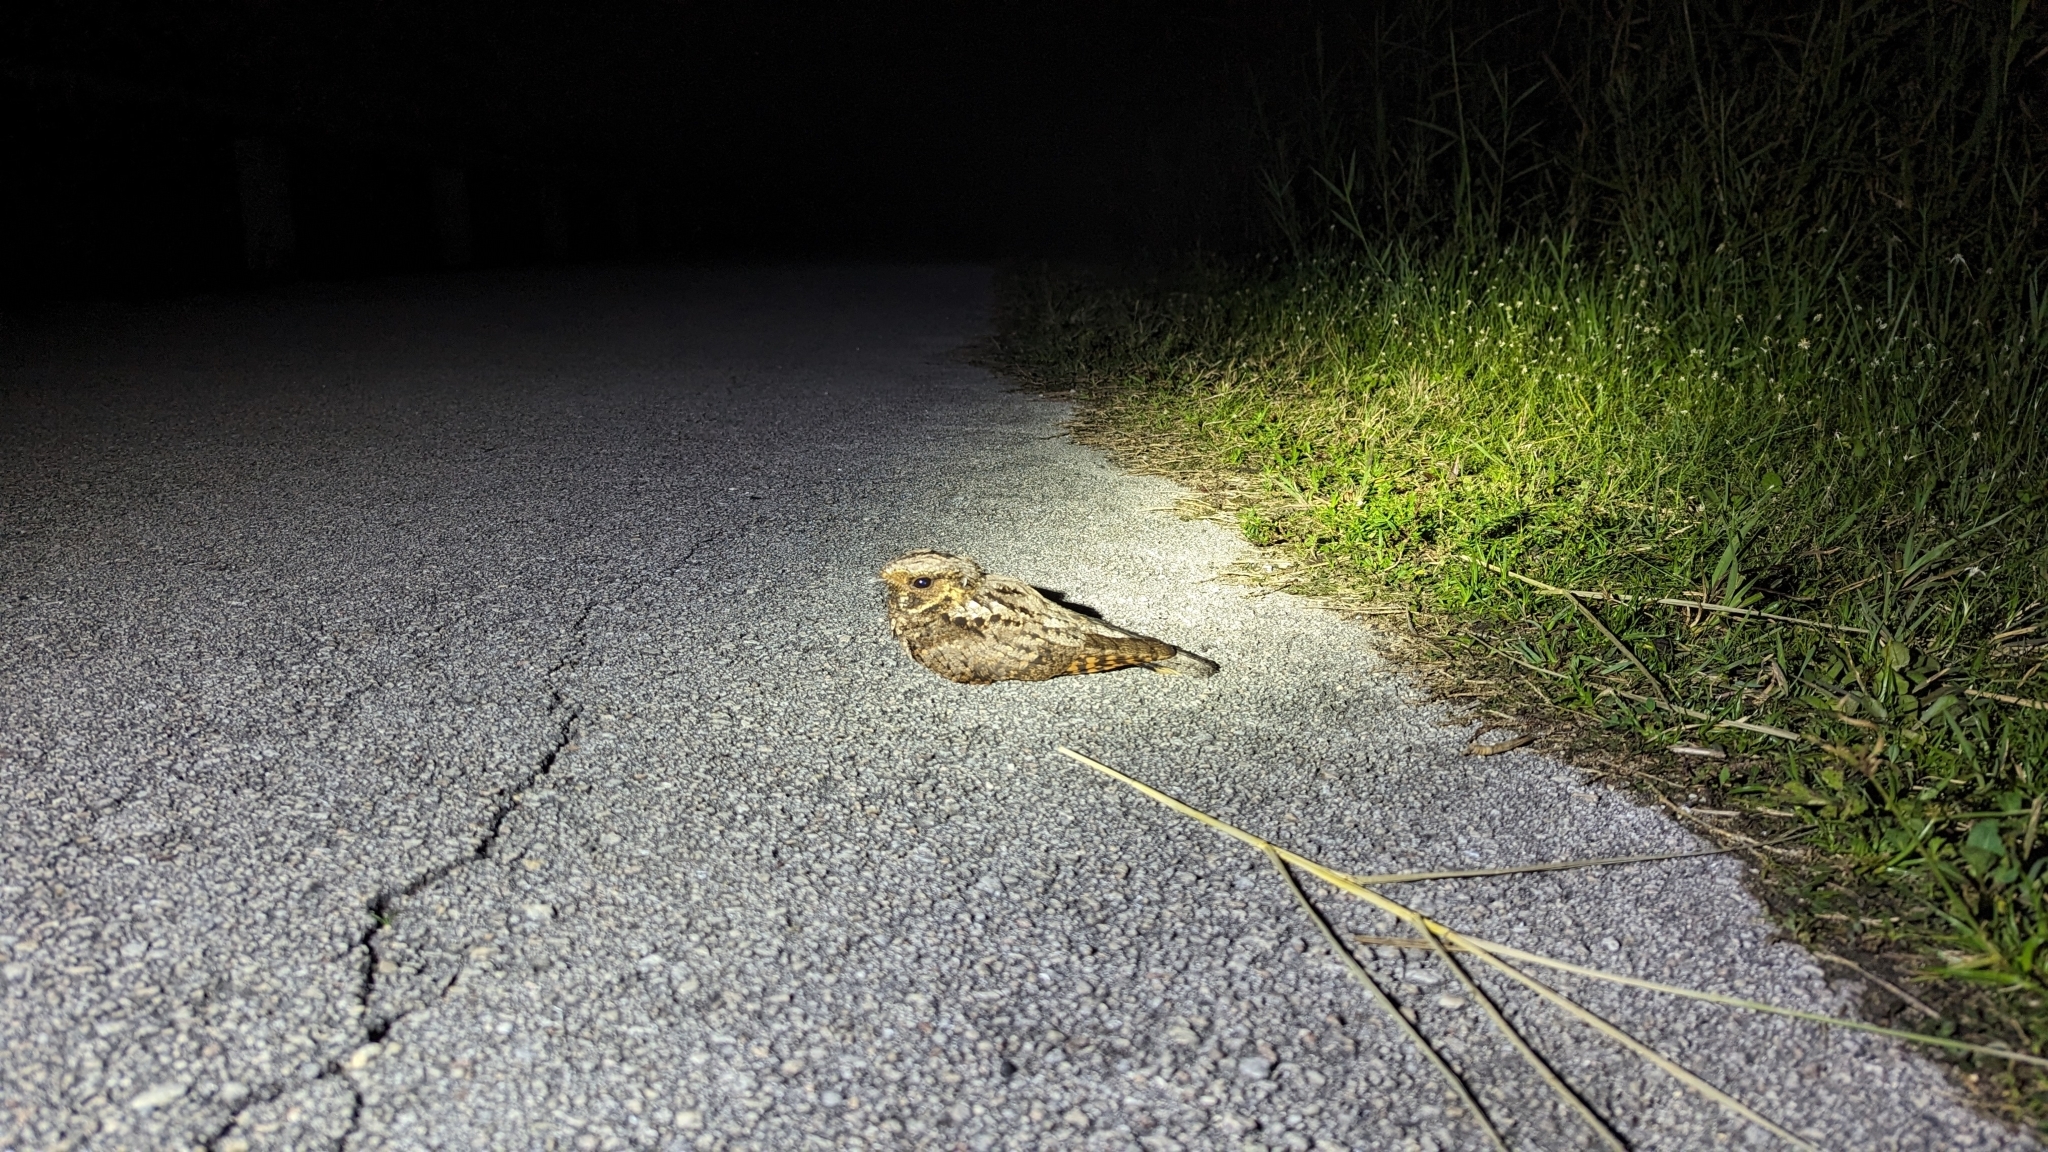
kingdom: Animalia
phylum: Chordata
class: Aves
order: Caprimulgiformes
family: Caprimulgidae
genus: Antrostomus
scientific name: Antrostomus vociferus
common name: Eastern whip-poor-will
